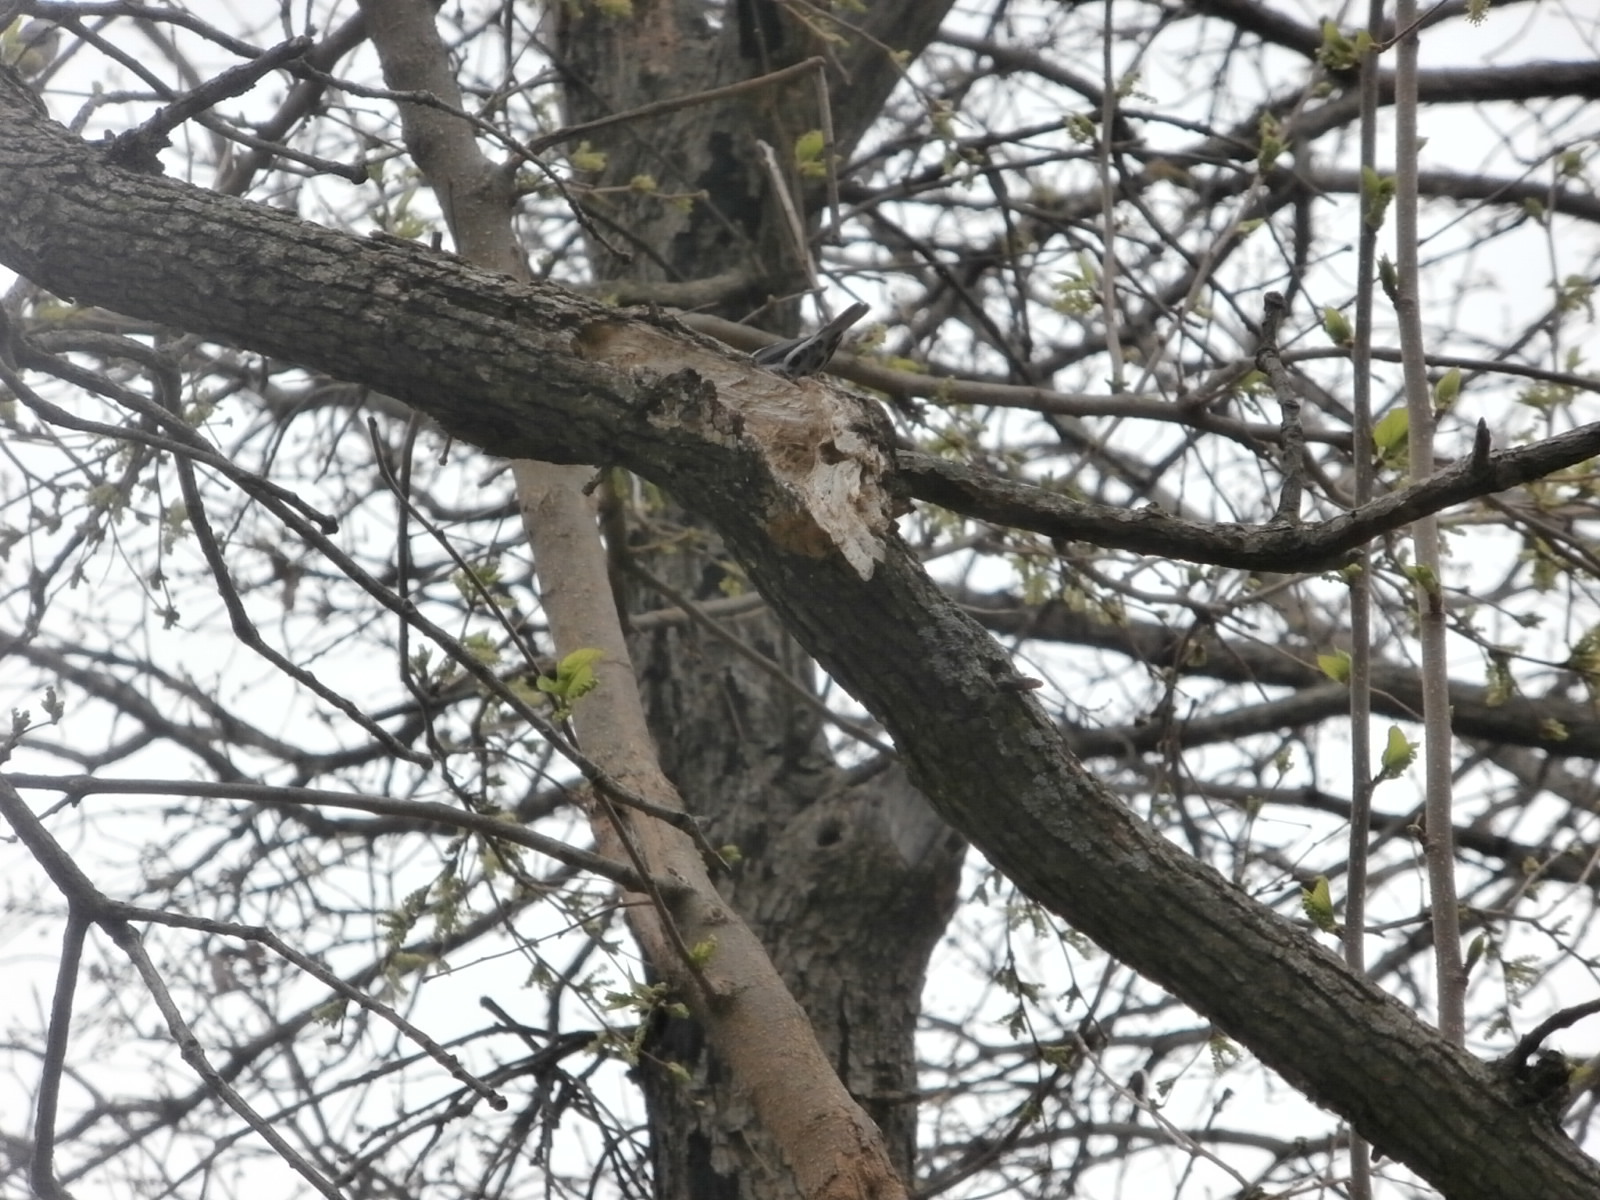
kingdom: Animalia
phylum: Chordata
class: Aves
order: Passeriformes
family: Parulidae
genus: Mniotilta
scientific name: Mniotilta varia
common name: Black-and-white warbler
